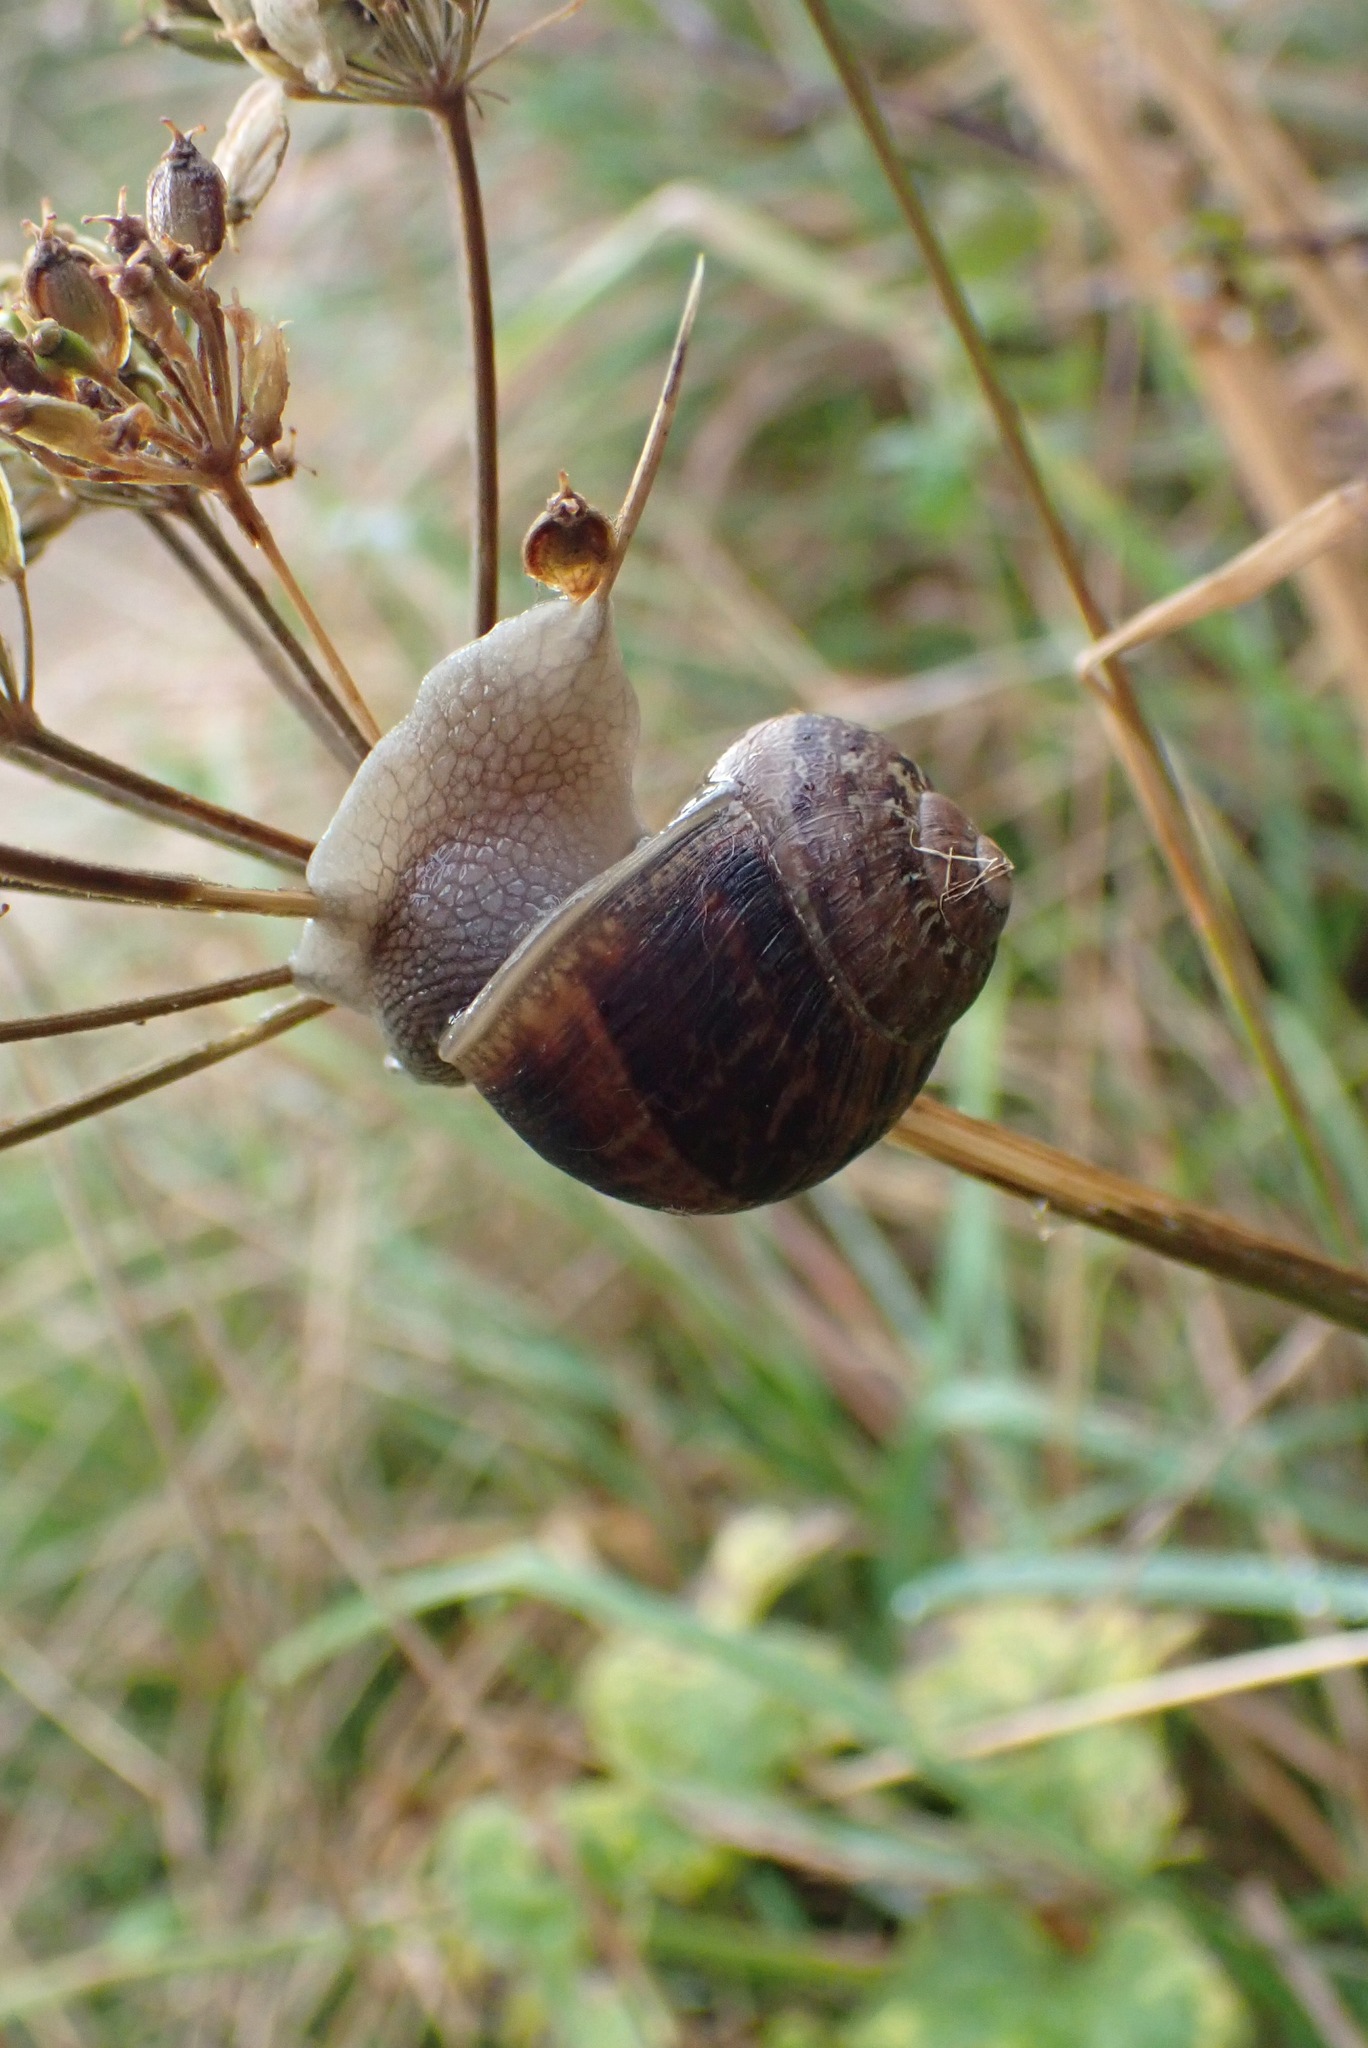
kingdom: Animalia
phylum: Mollusca
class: Gastropoda
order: Stylommatophora
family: Helicidae
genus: Cornu
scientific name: Cornu aspersum
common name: Brown garden snail
